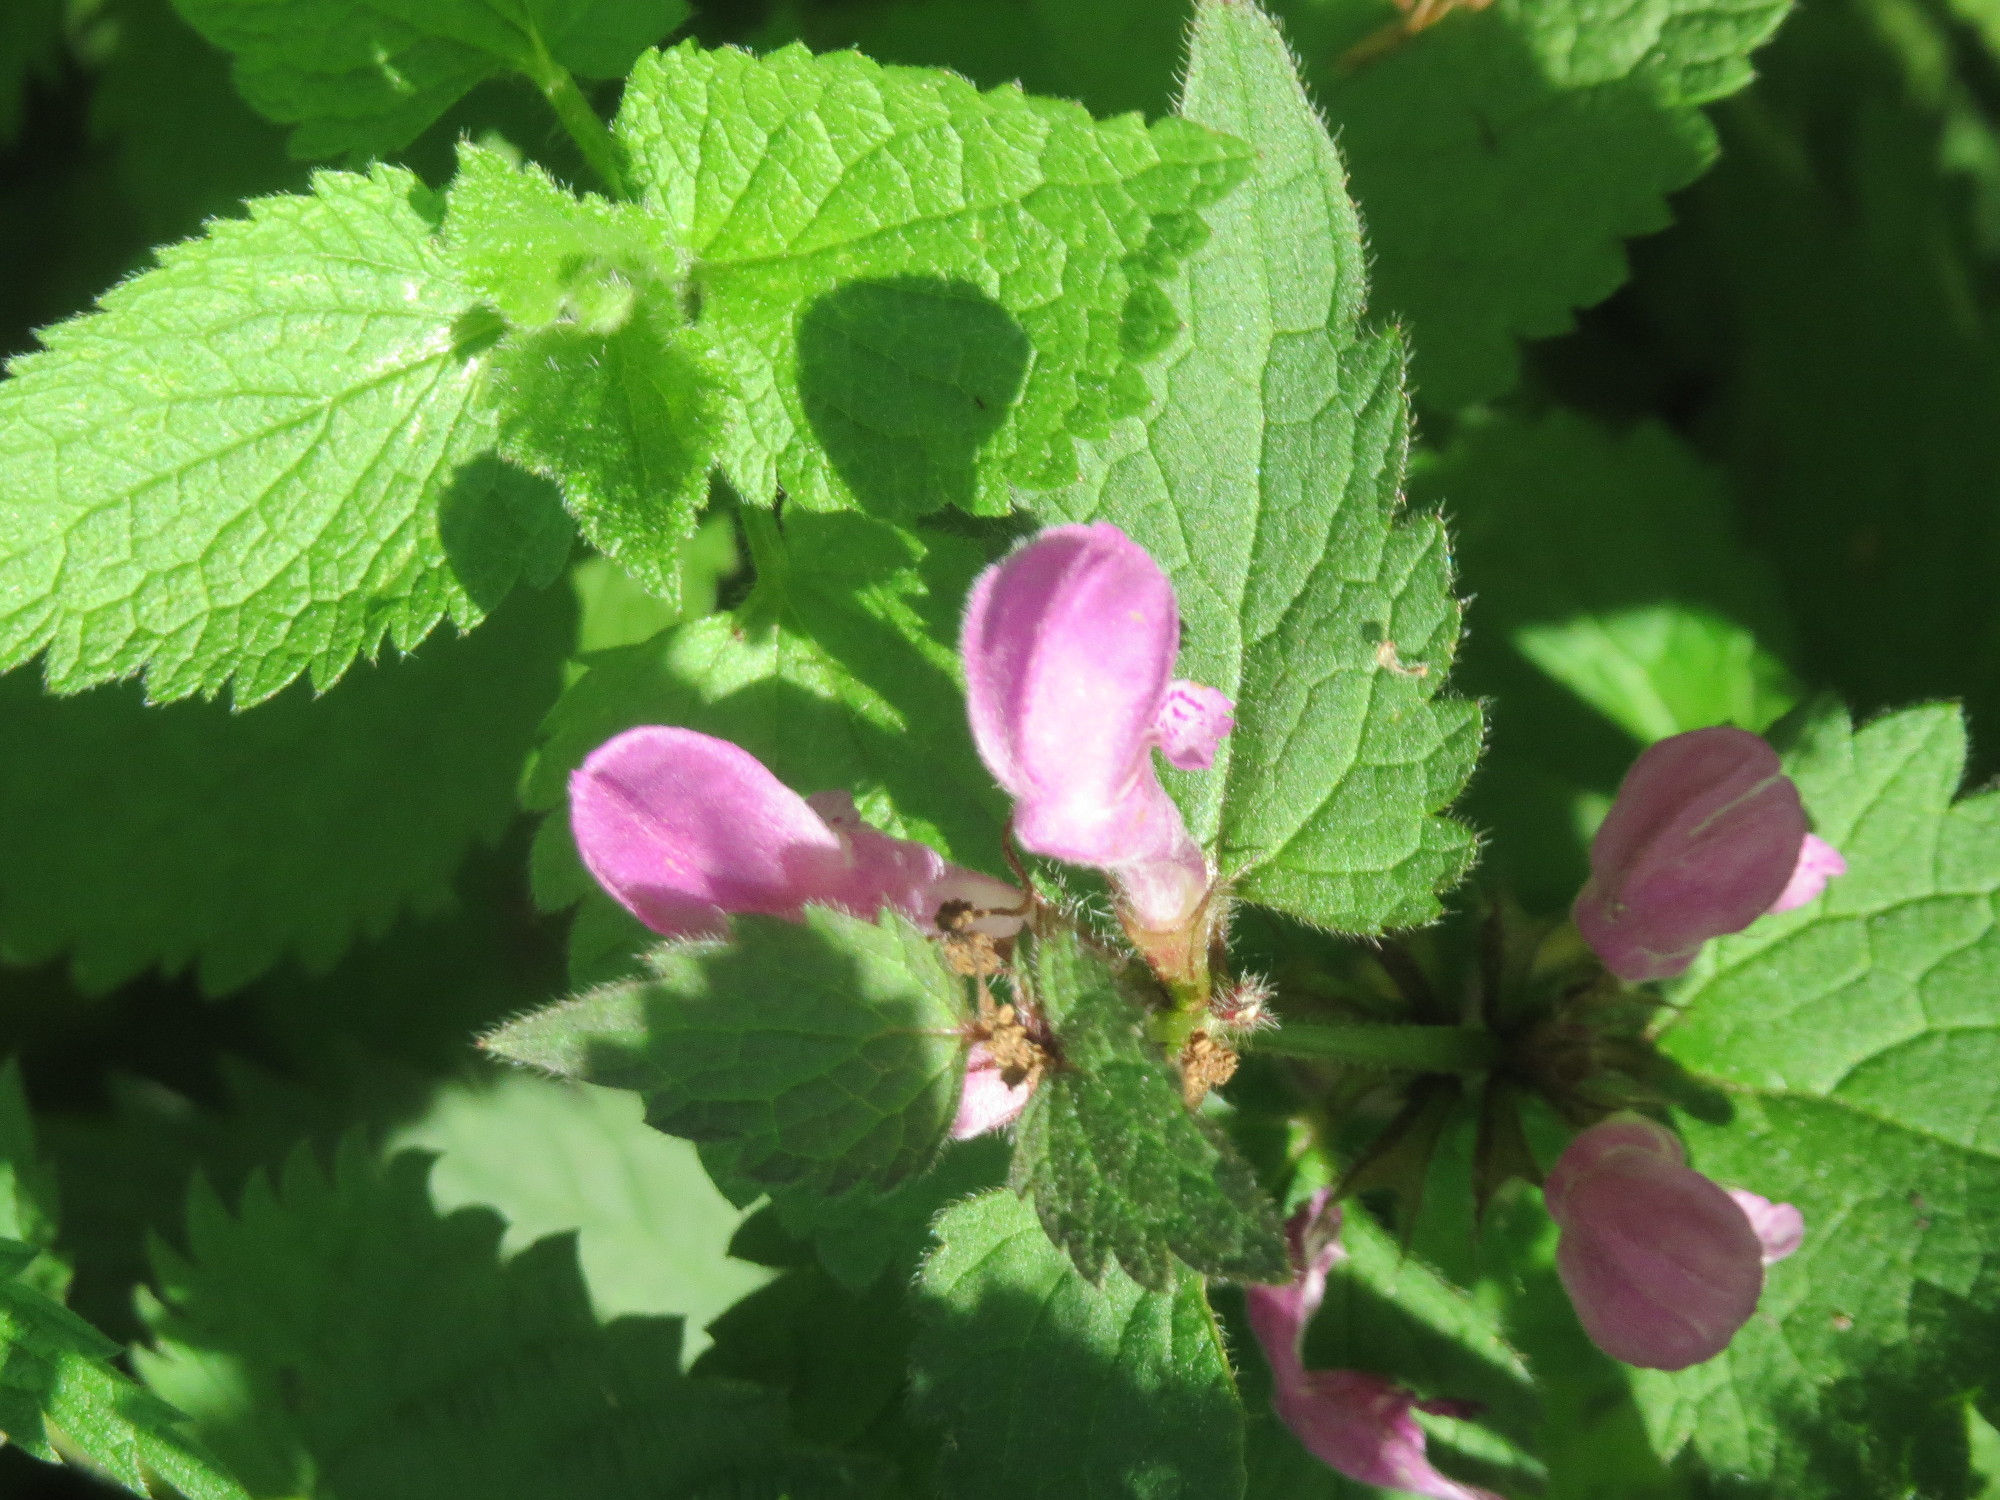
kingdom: Plantae
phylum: Tracheophyta
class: Magnoliopsida
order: Lamiales
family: Lamiaceae
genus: Lamium
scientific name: Lamium maculatum
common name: Spotted dead-nettle
